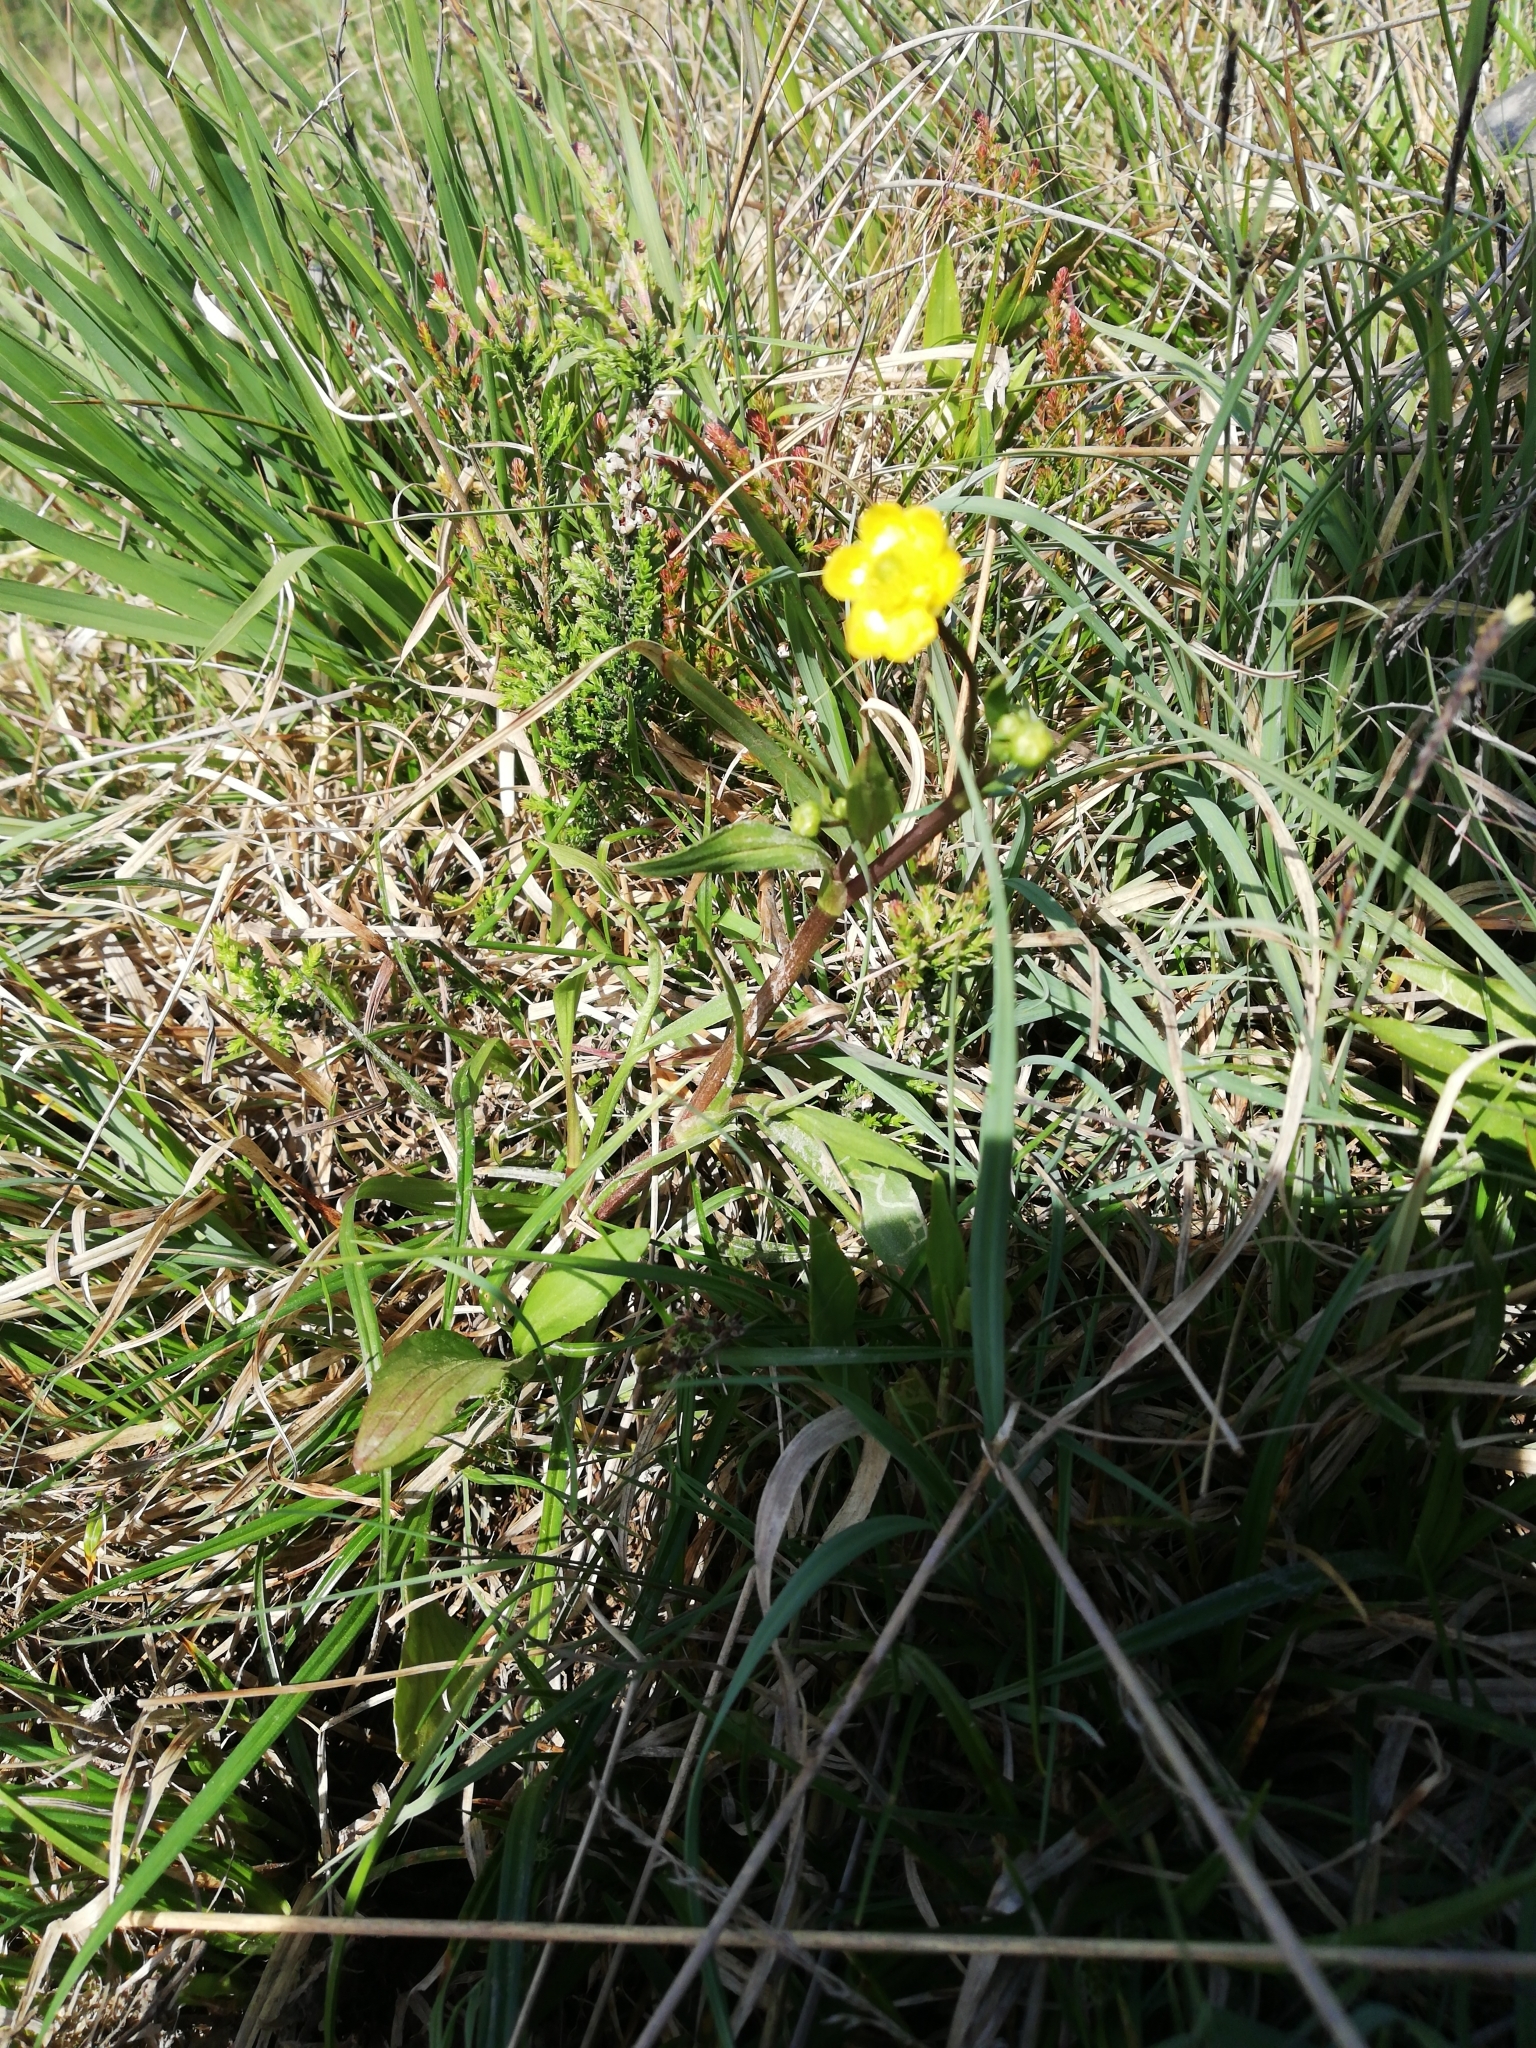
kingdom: Plantae
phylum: Tracheophyta
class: Magnoliopsida
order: Ranunculales
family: Ranunculaceae
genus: Ranunculus
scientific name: Ranunculus flammula
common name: Lesser spearwort
